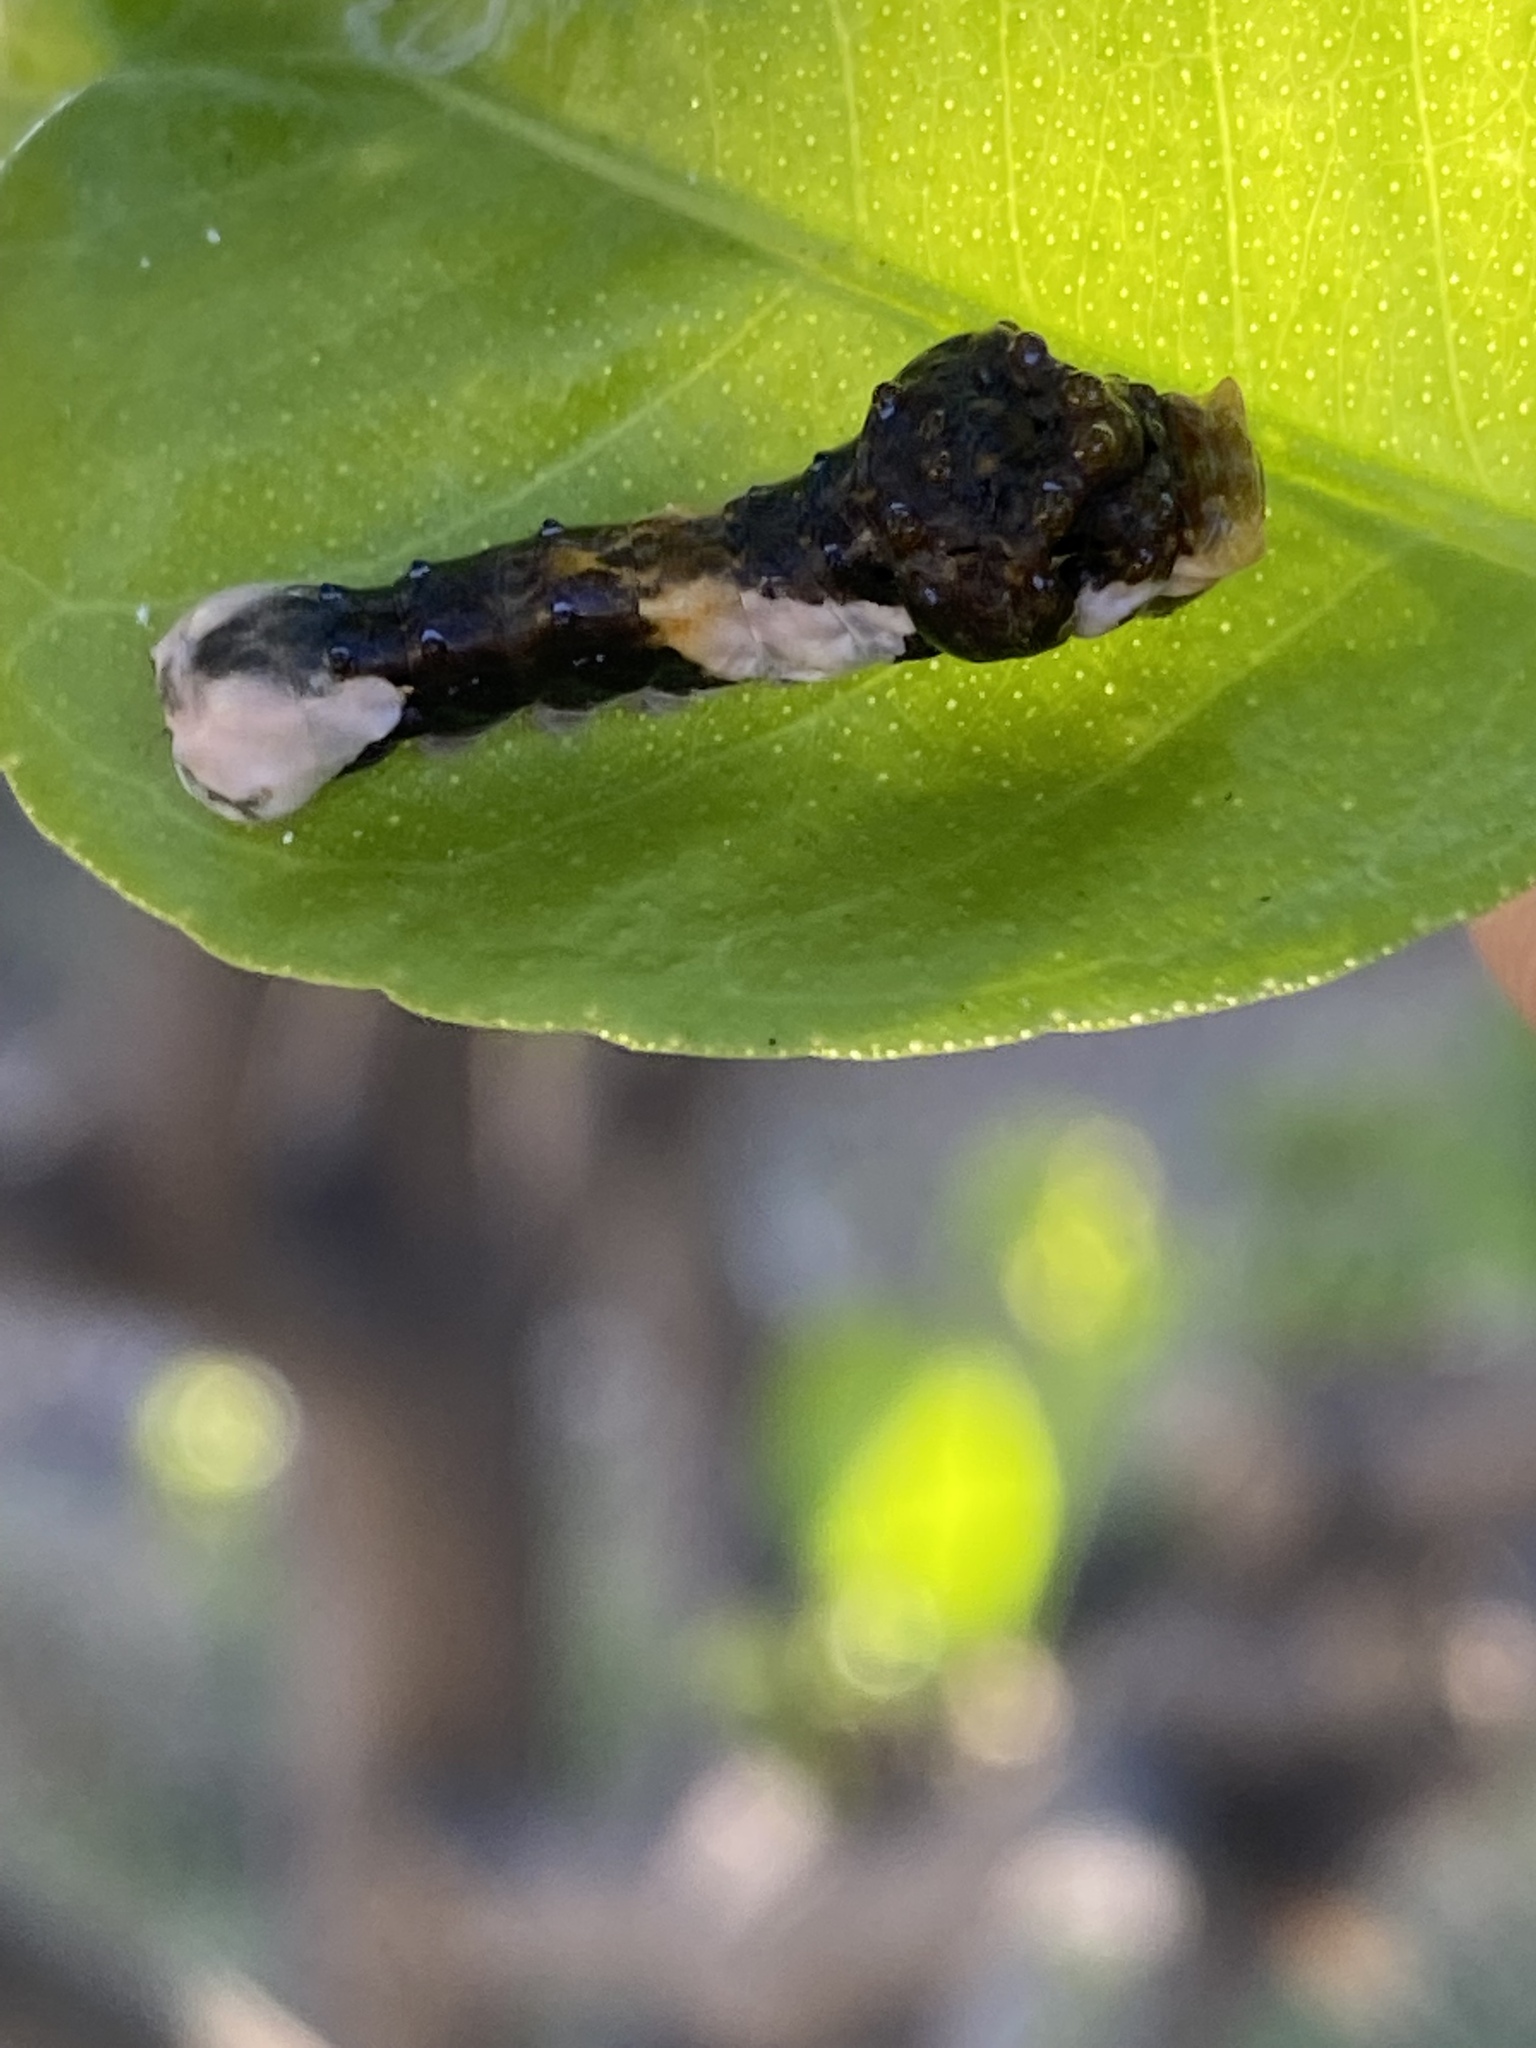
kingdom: Animalia
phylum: Arthropoda
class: Insecta
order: Lepidoptera
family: Papilionidae
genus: Papilio
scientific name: Papilio rumiko
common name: Western giant swallowtail
